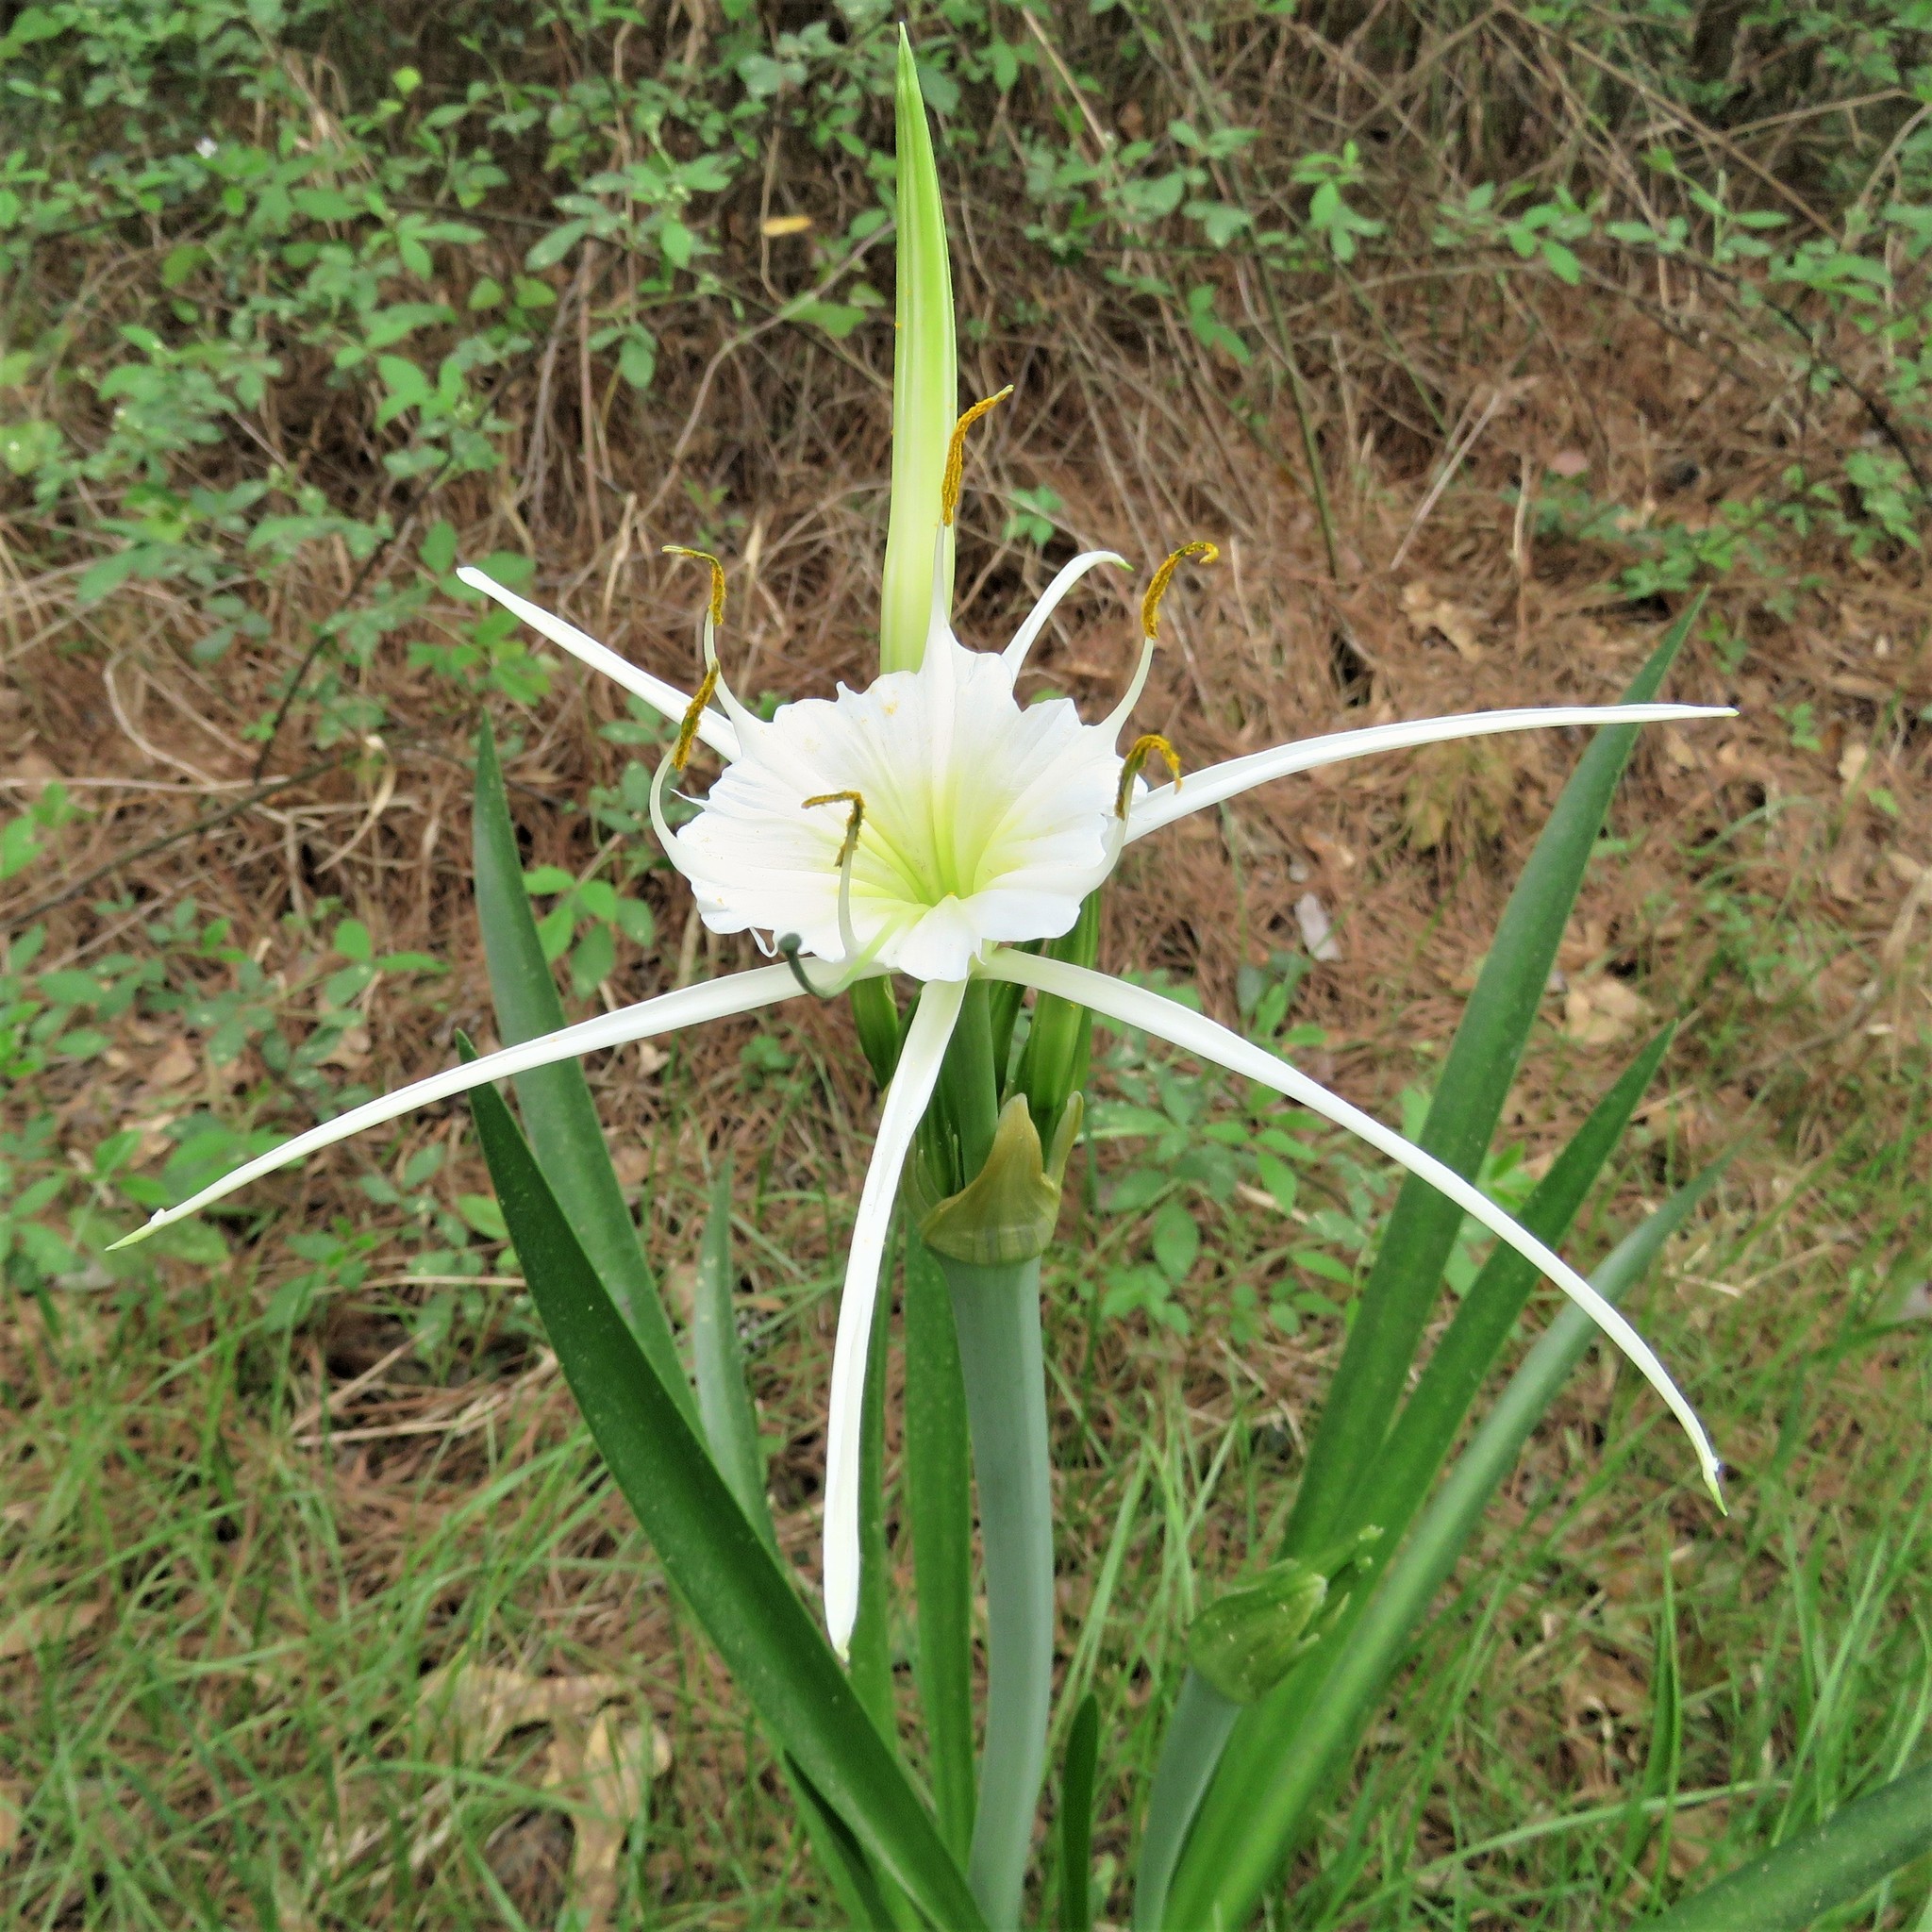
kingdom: Plantae
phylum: Tracheophyta
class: Liliopsida
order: Asparagales
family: Amaryllidaceae
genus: Hymenocallis
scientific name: Hymenocallis liriosme
